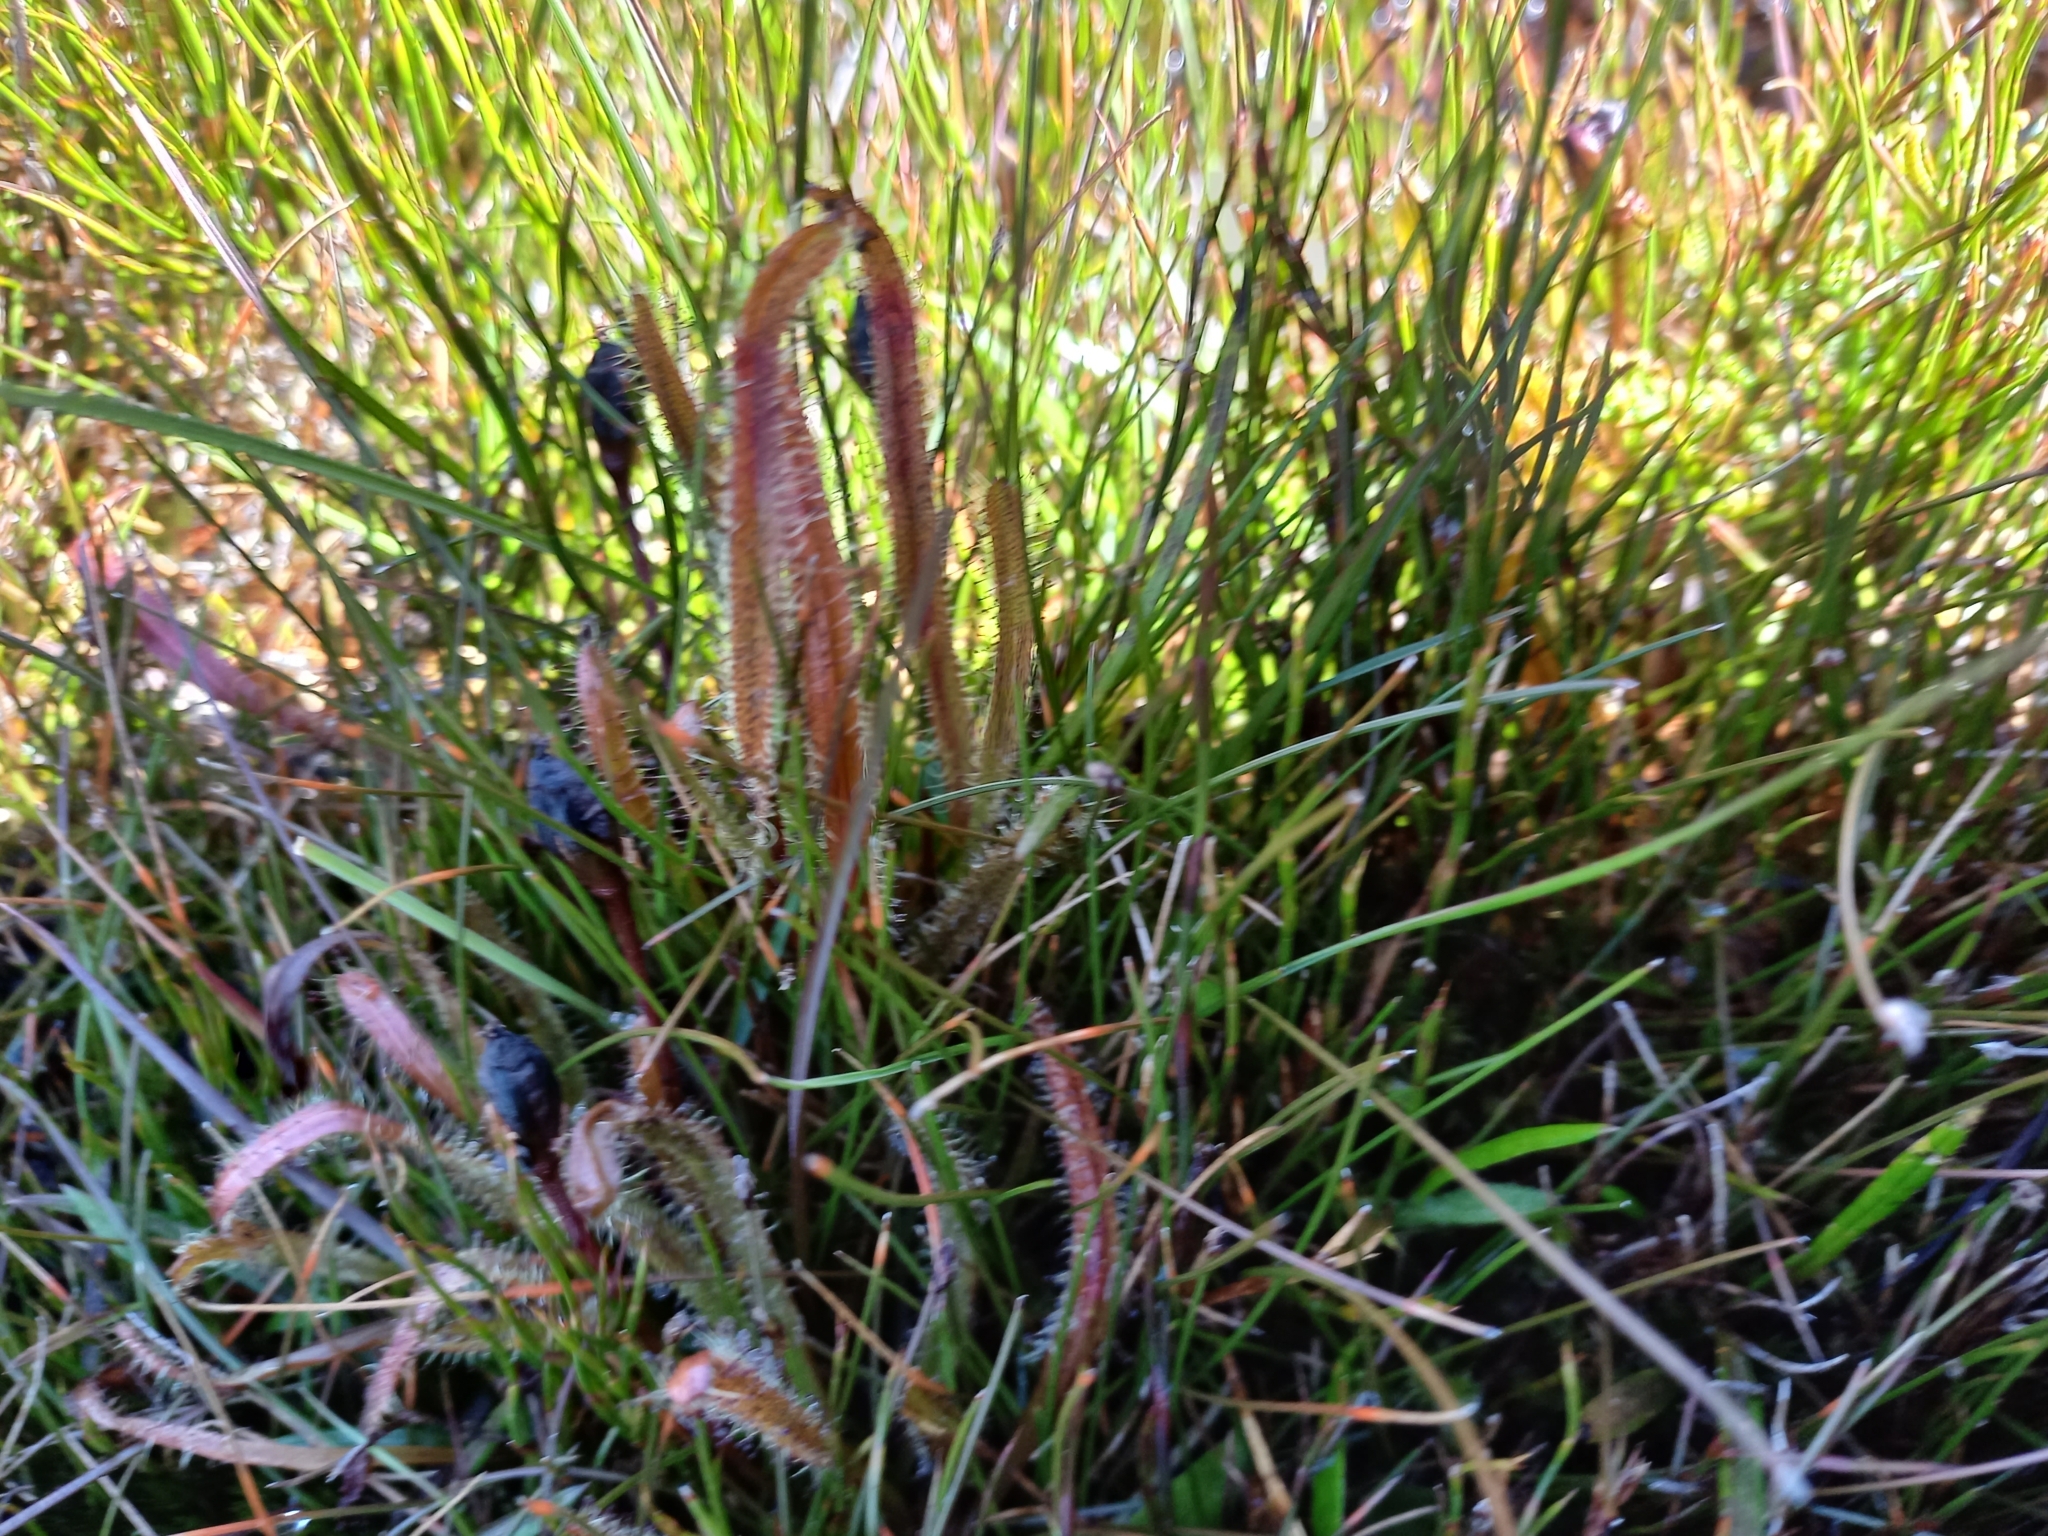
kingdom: Plantae
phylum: Tracheophyta
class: Magnoliopsida
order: Caryophyllales
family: Droseraceae
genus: Drosera
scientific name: Drosera arcturi
